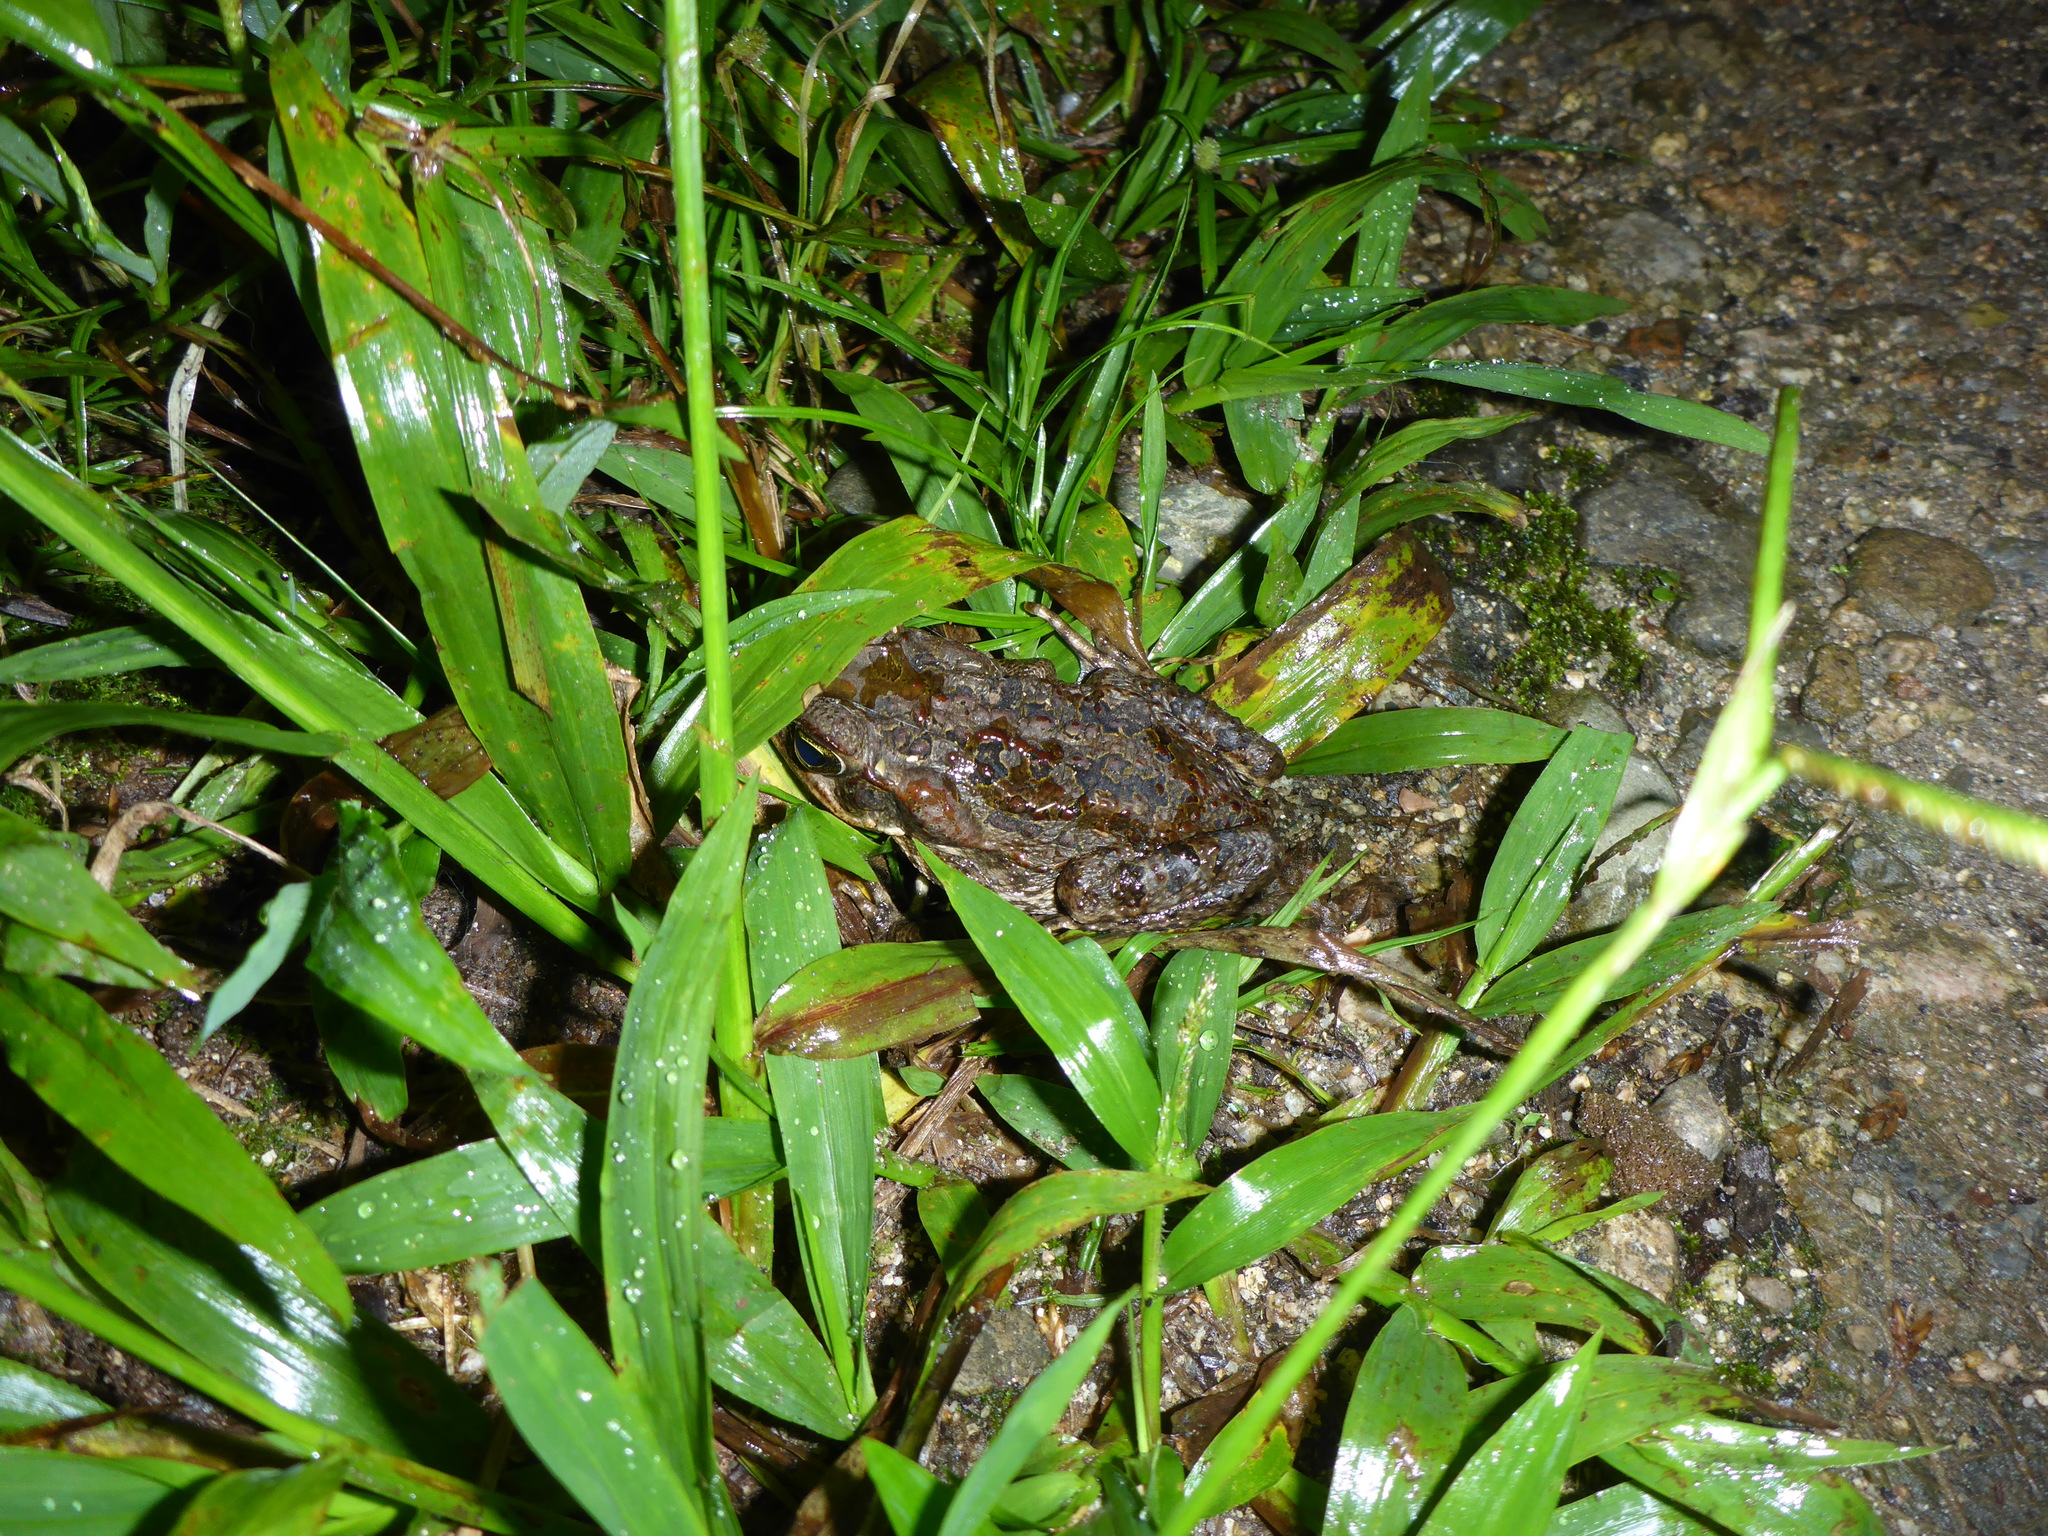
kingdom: Animalia
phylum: Chordata
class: Amphibia
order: Anura
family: Bufonidae
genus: Rhinella
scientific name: Rhinella marina
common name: Cane toad
